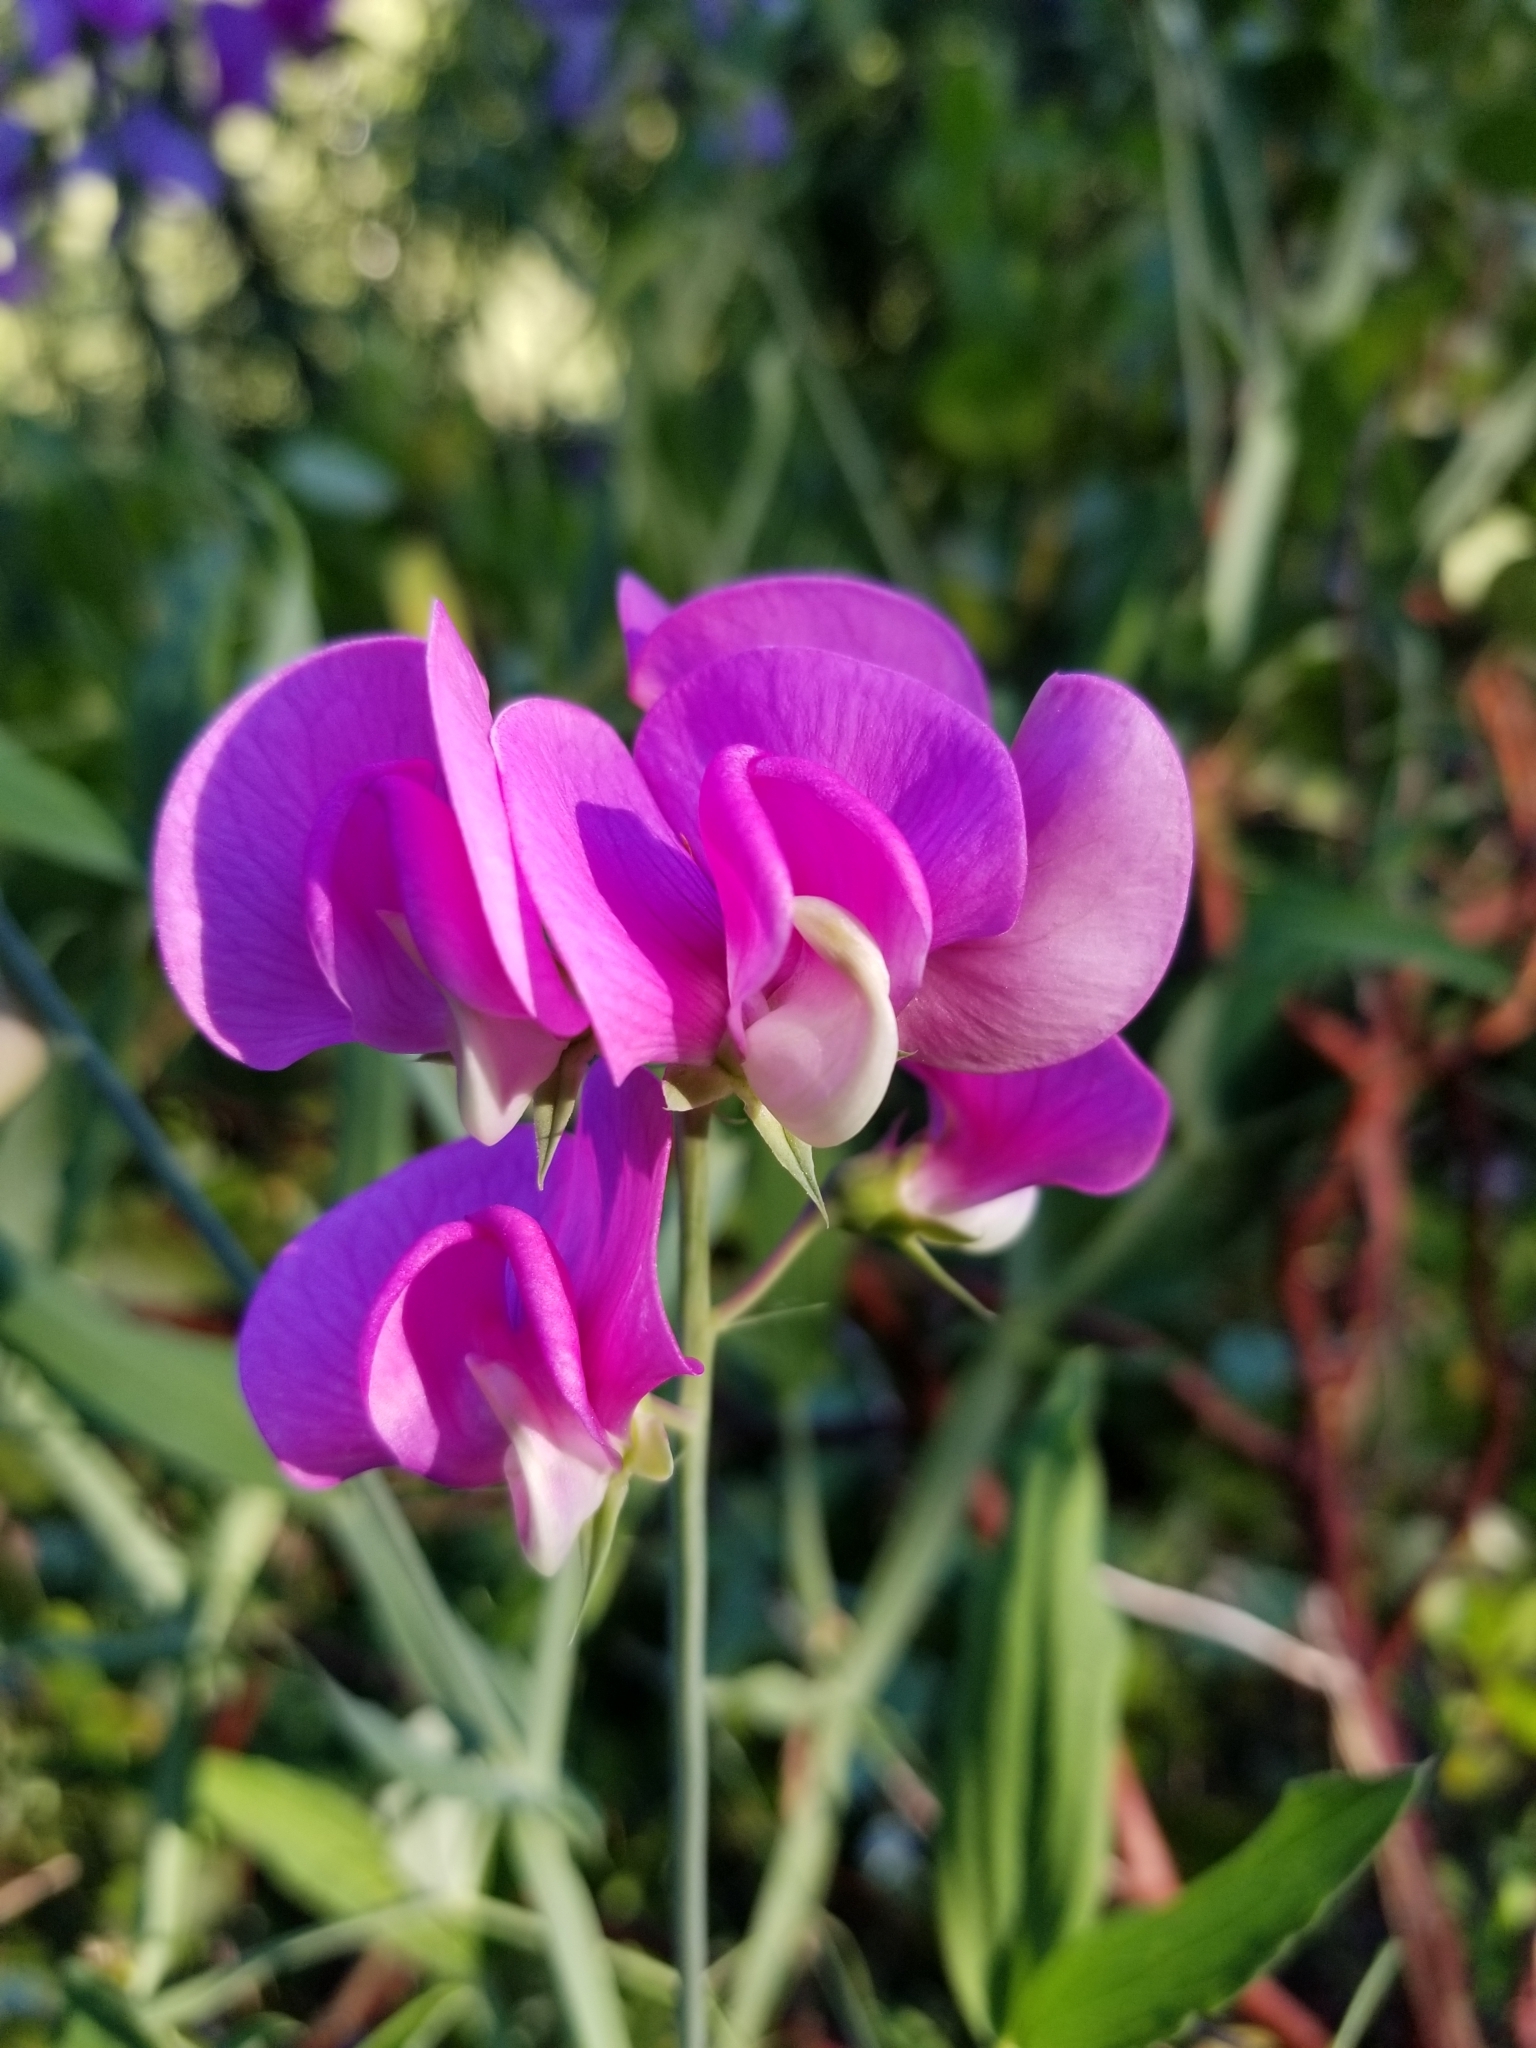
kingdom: Plantae
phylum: Tracheophyta
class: Magnoliopsida
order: Fabales
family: Fabaceae
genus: Lathyrus
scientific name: Lathyrus latifolius
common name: Perennial pea
